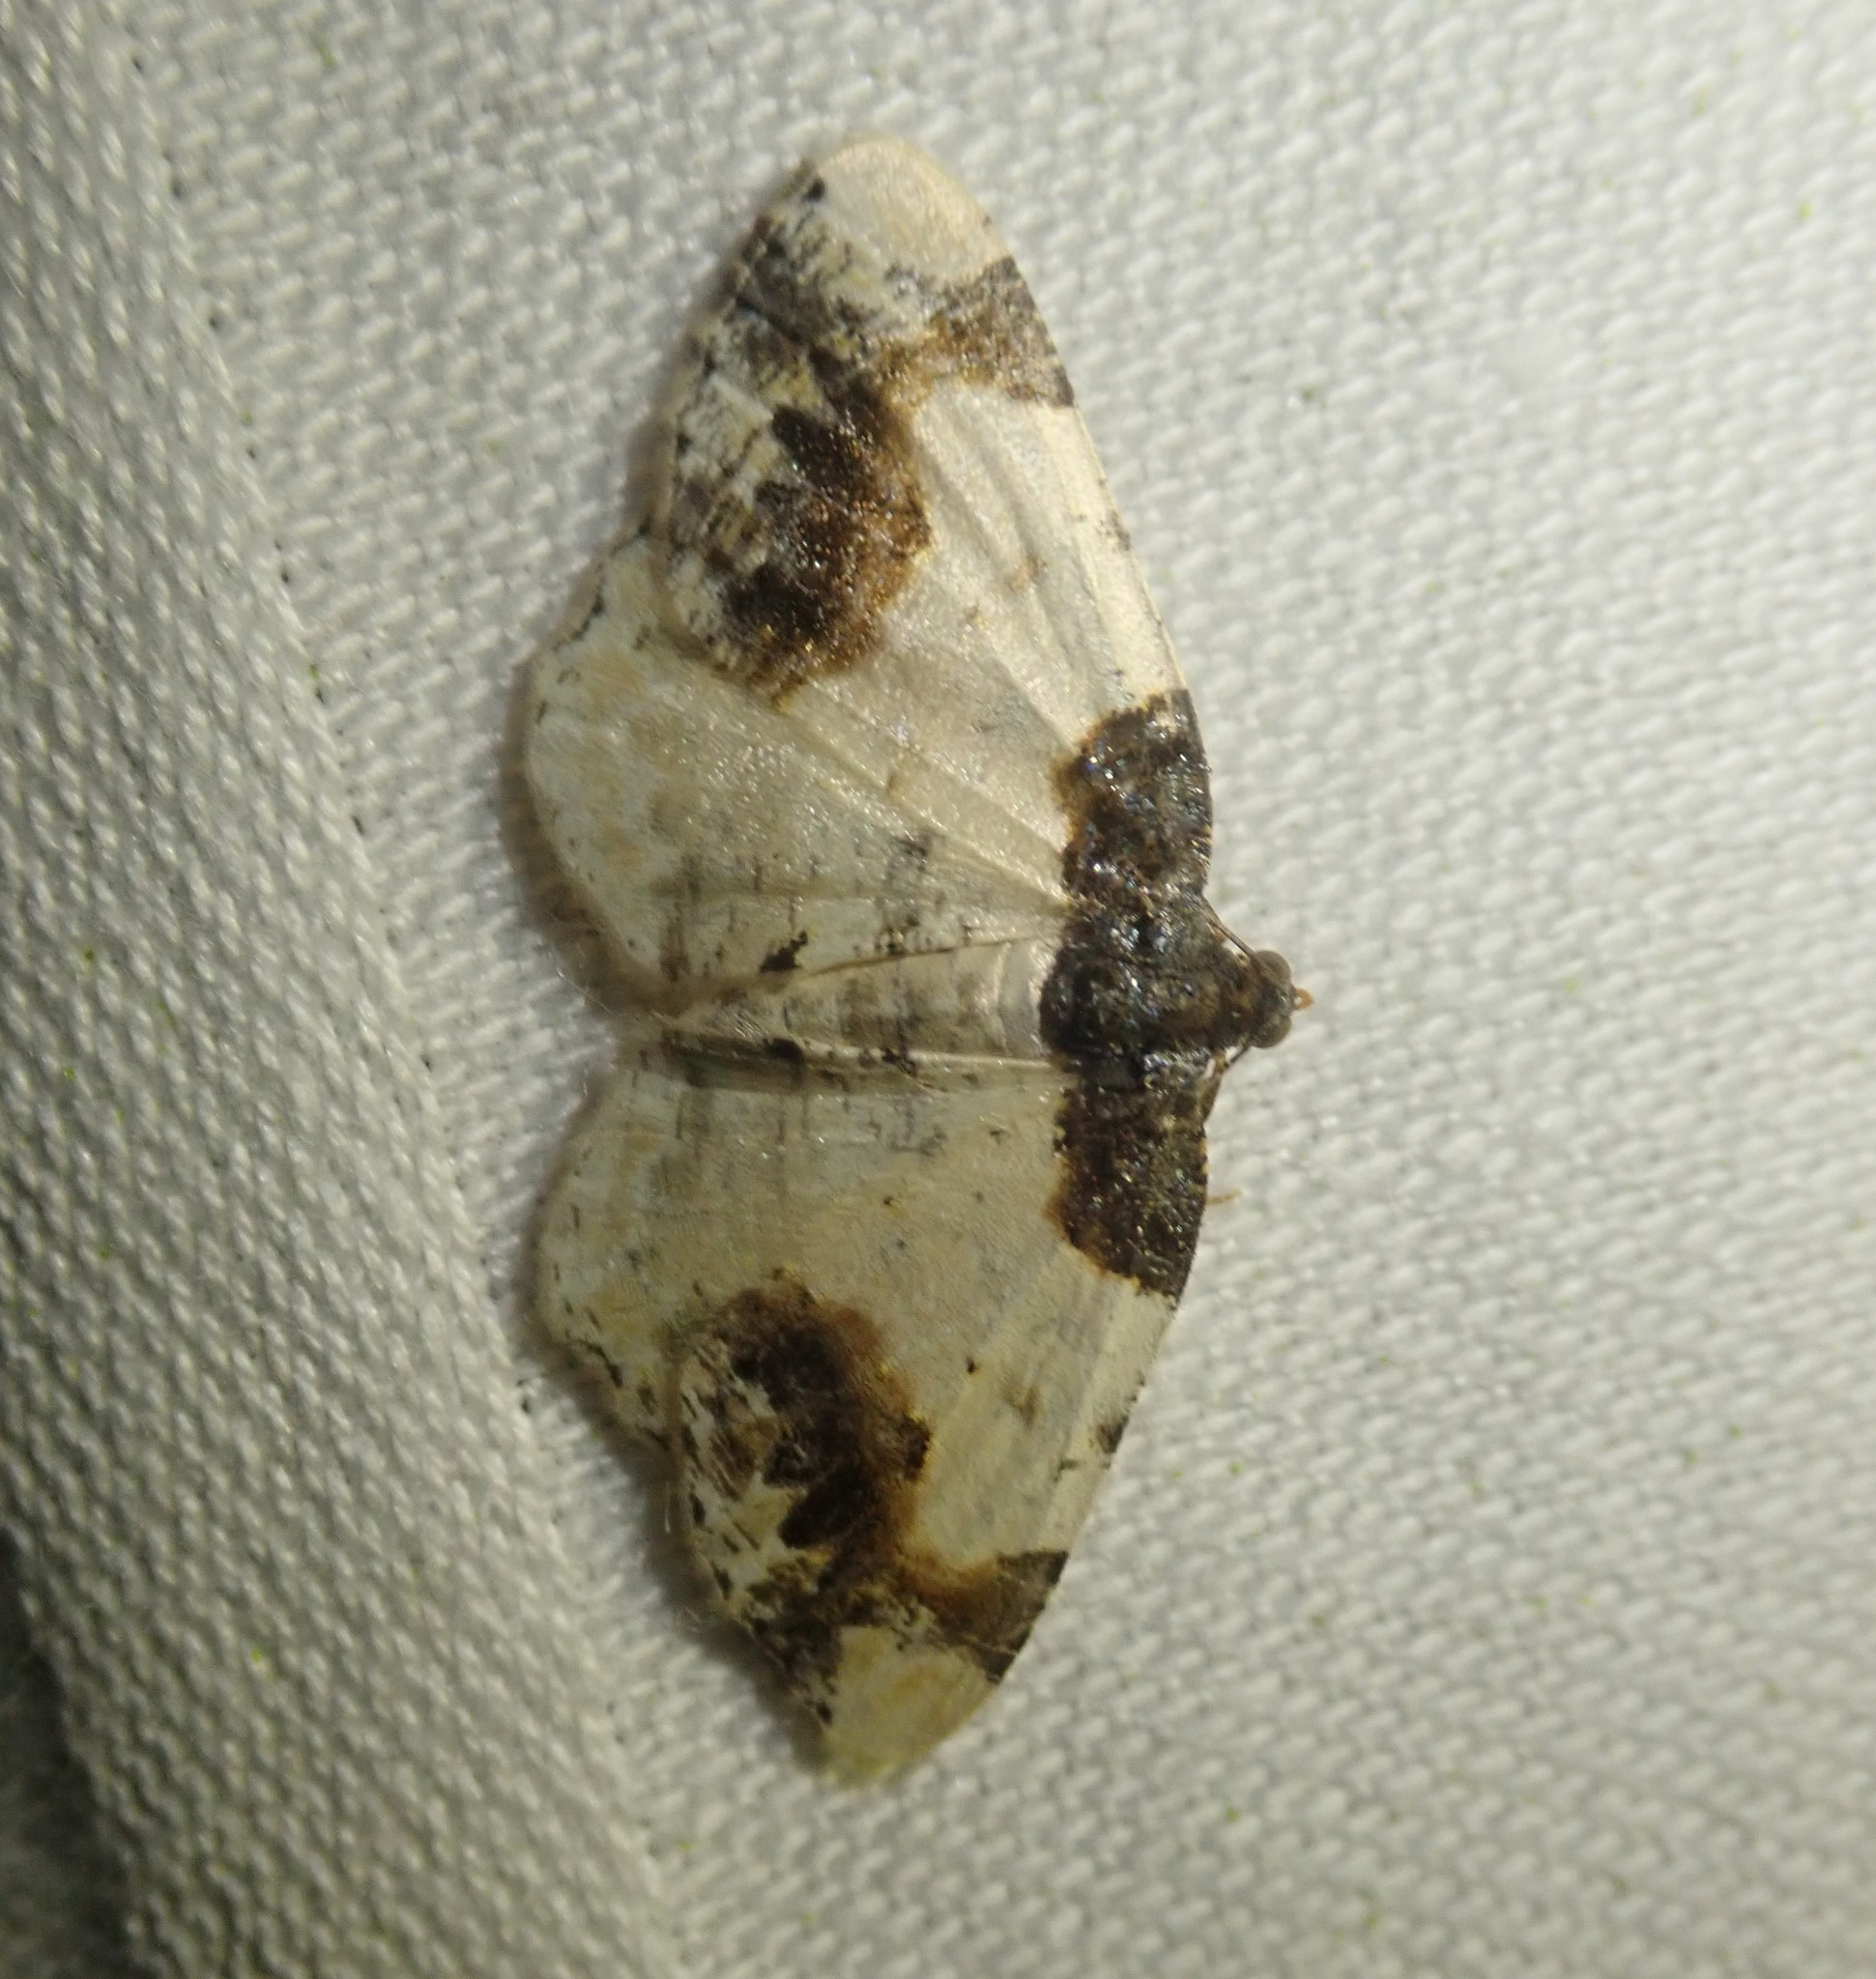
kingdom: Animalia
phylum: Arthropoda
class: Insecta
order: Lepidoptera
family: Geometridae
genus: Ligdia
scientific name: Ligdia adustata
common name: Scorched carpet
